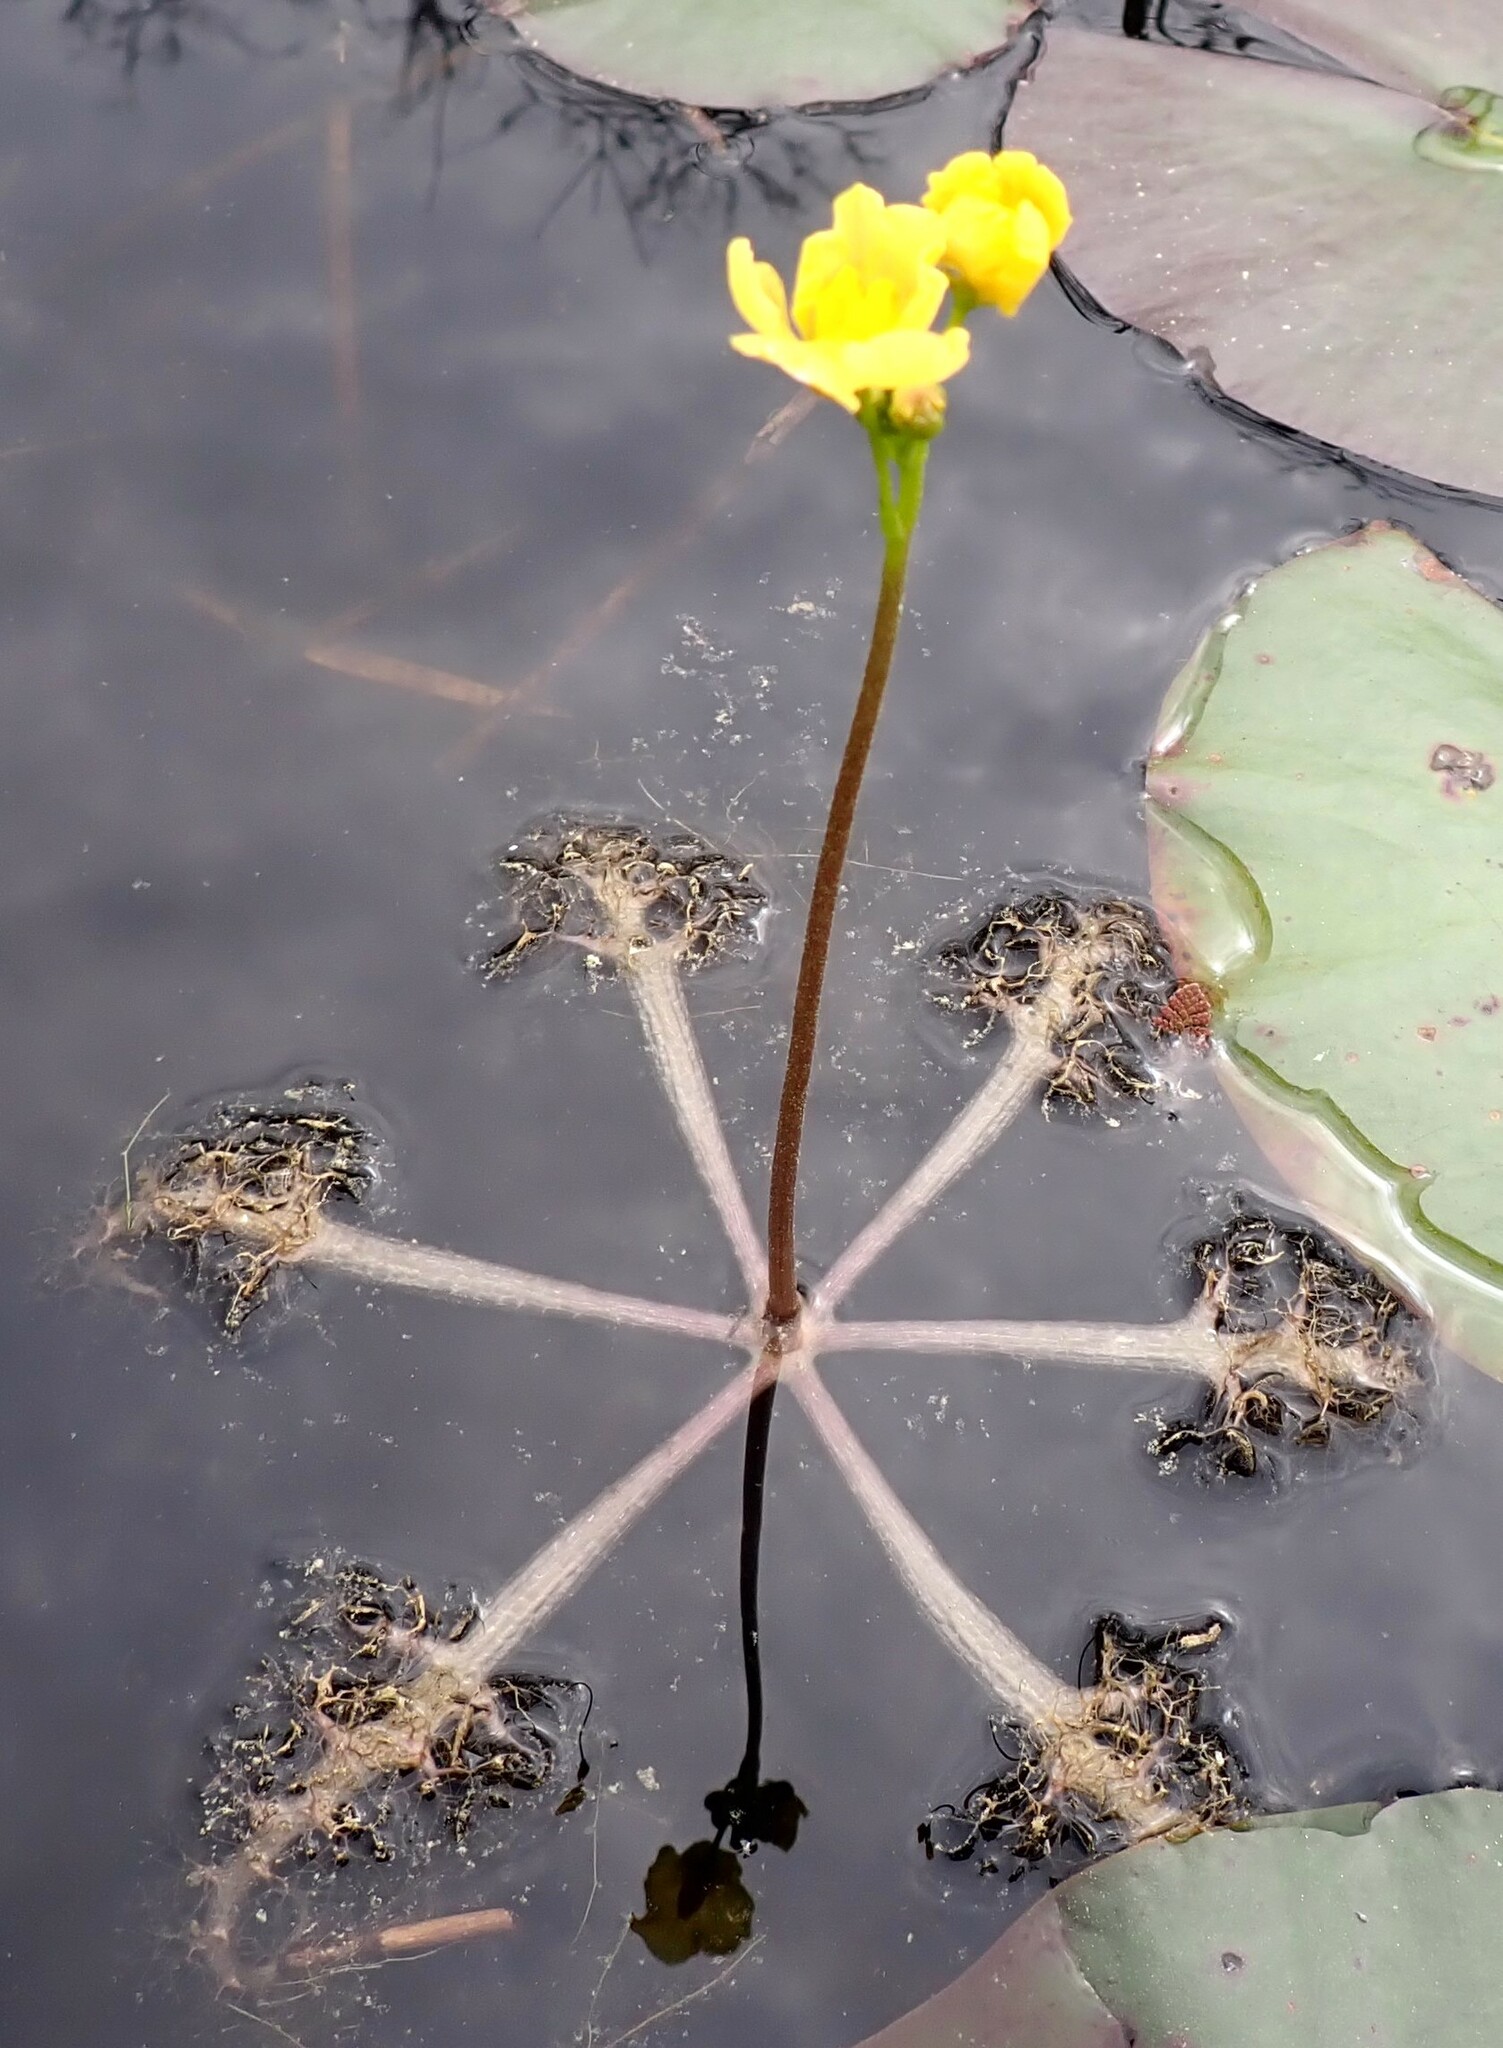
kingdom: Plantae
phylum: Tracheophyta
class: Magnoliopsida
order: Lamiales
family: Lentibulariaceae
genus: Utricularia
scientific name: Utricularia inflata
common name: Floating bladderwort
